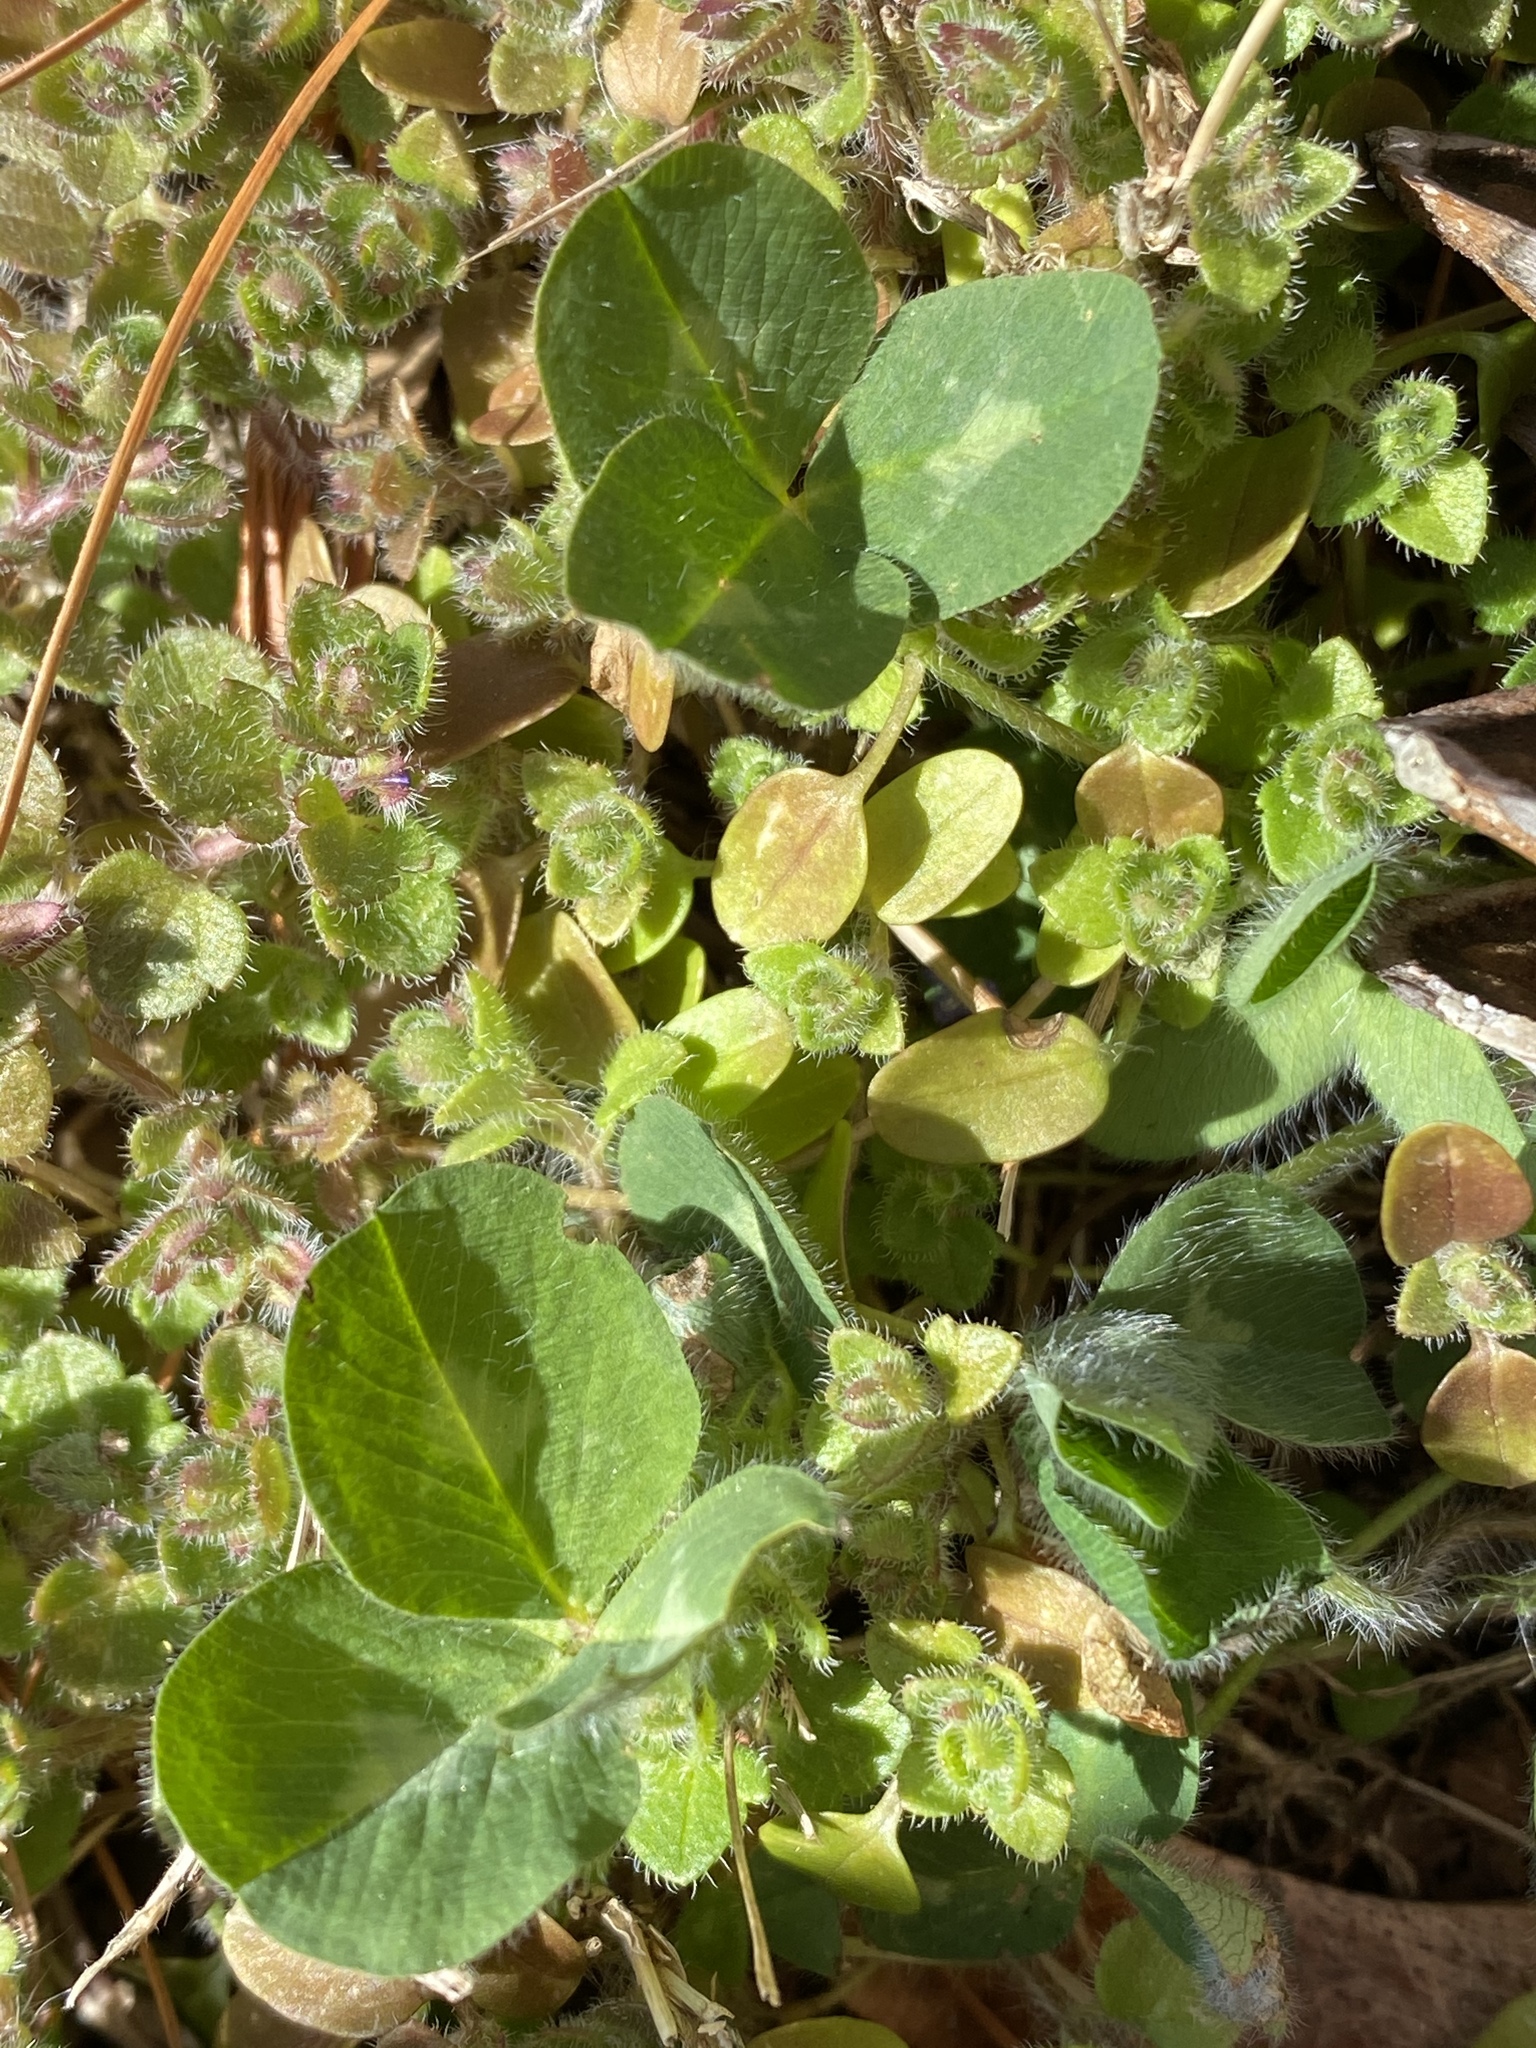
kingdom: Plantae
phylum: Tracheophyta
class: Magnoliopsida
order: Fabales
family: Fabaceae
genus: Trifolium
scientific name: Trifolium pratense
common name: Red clover
